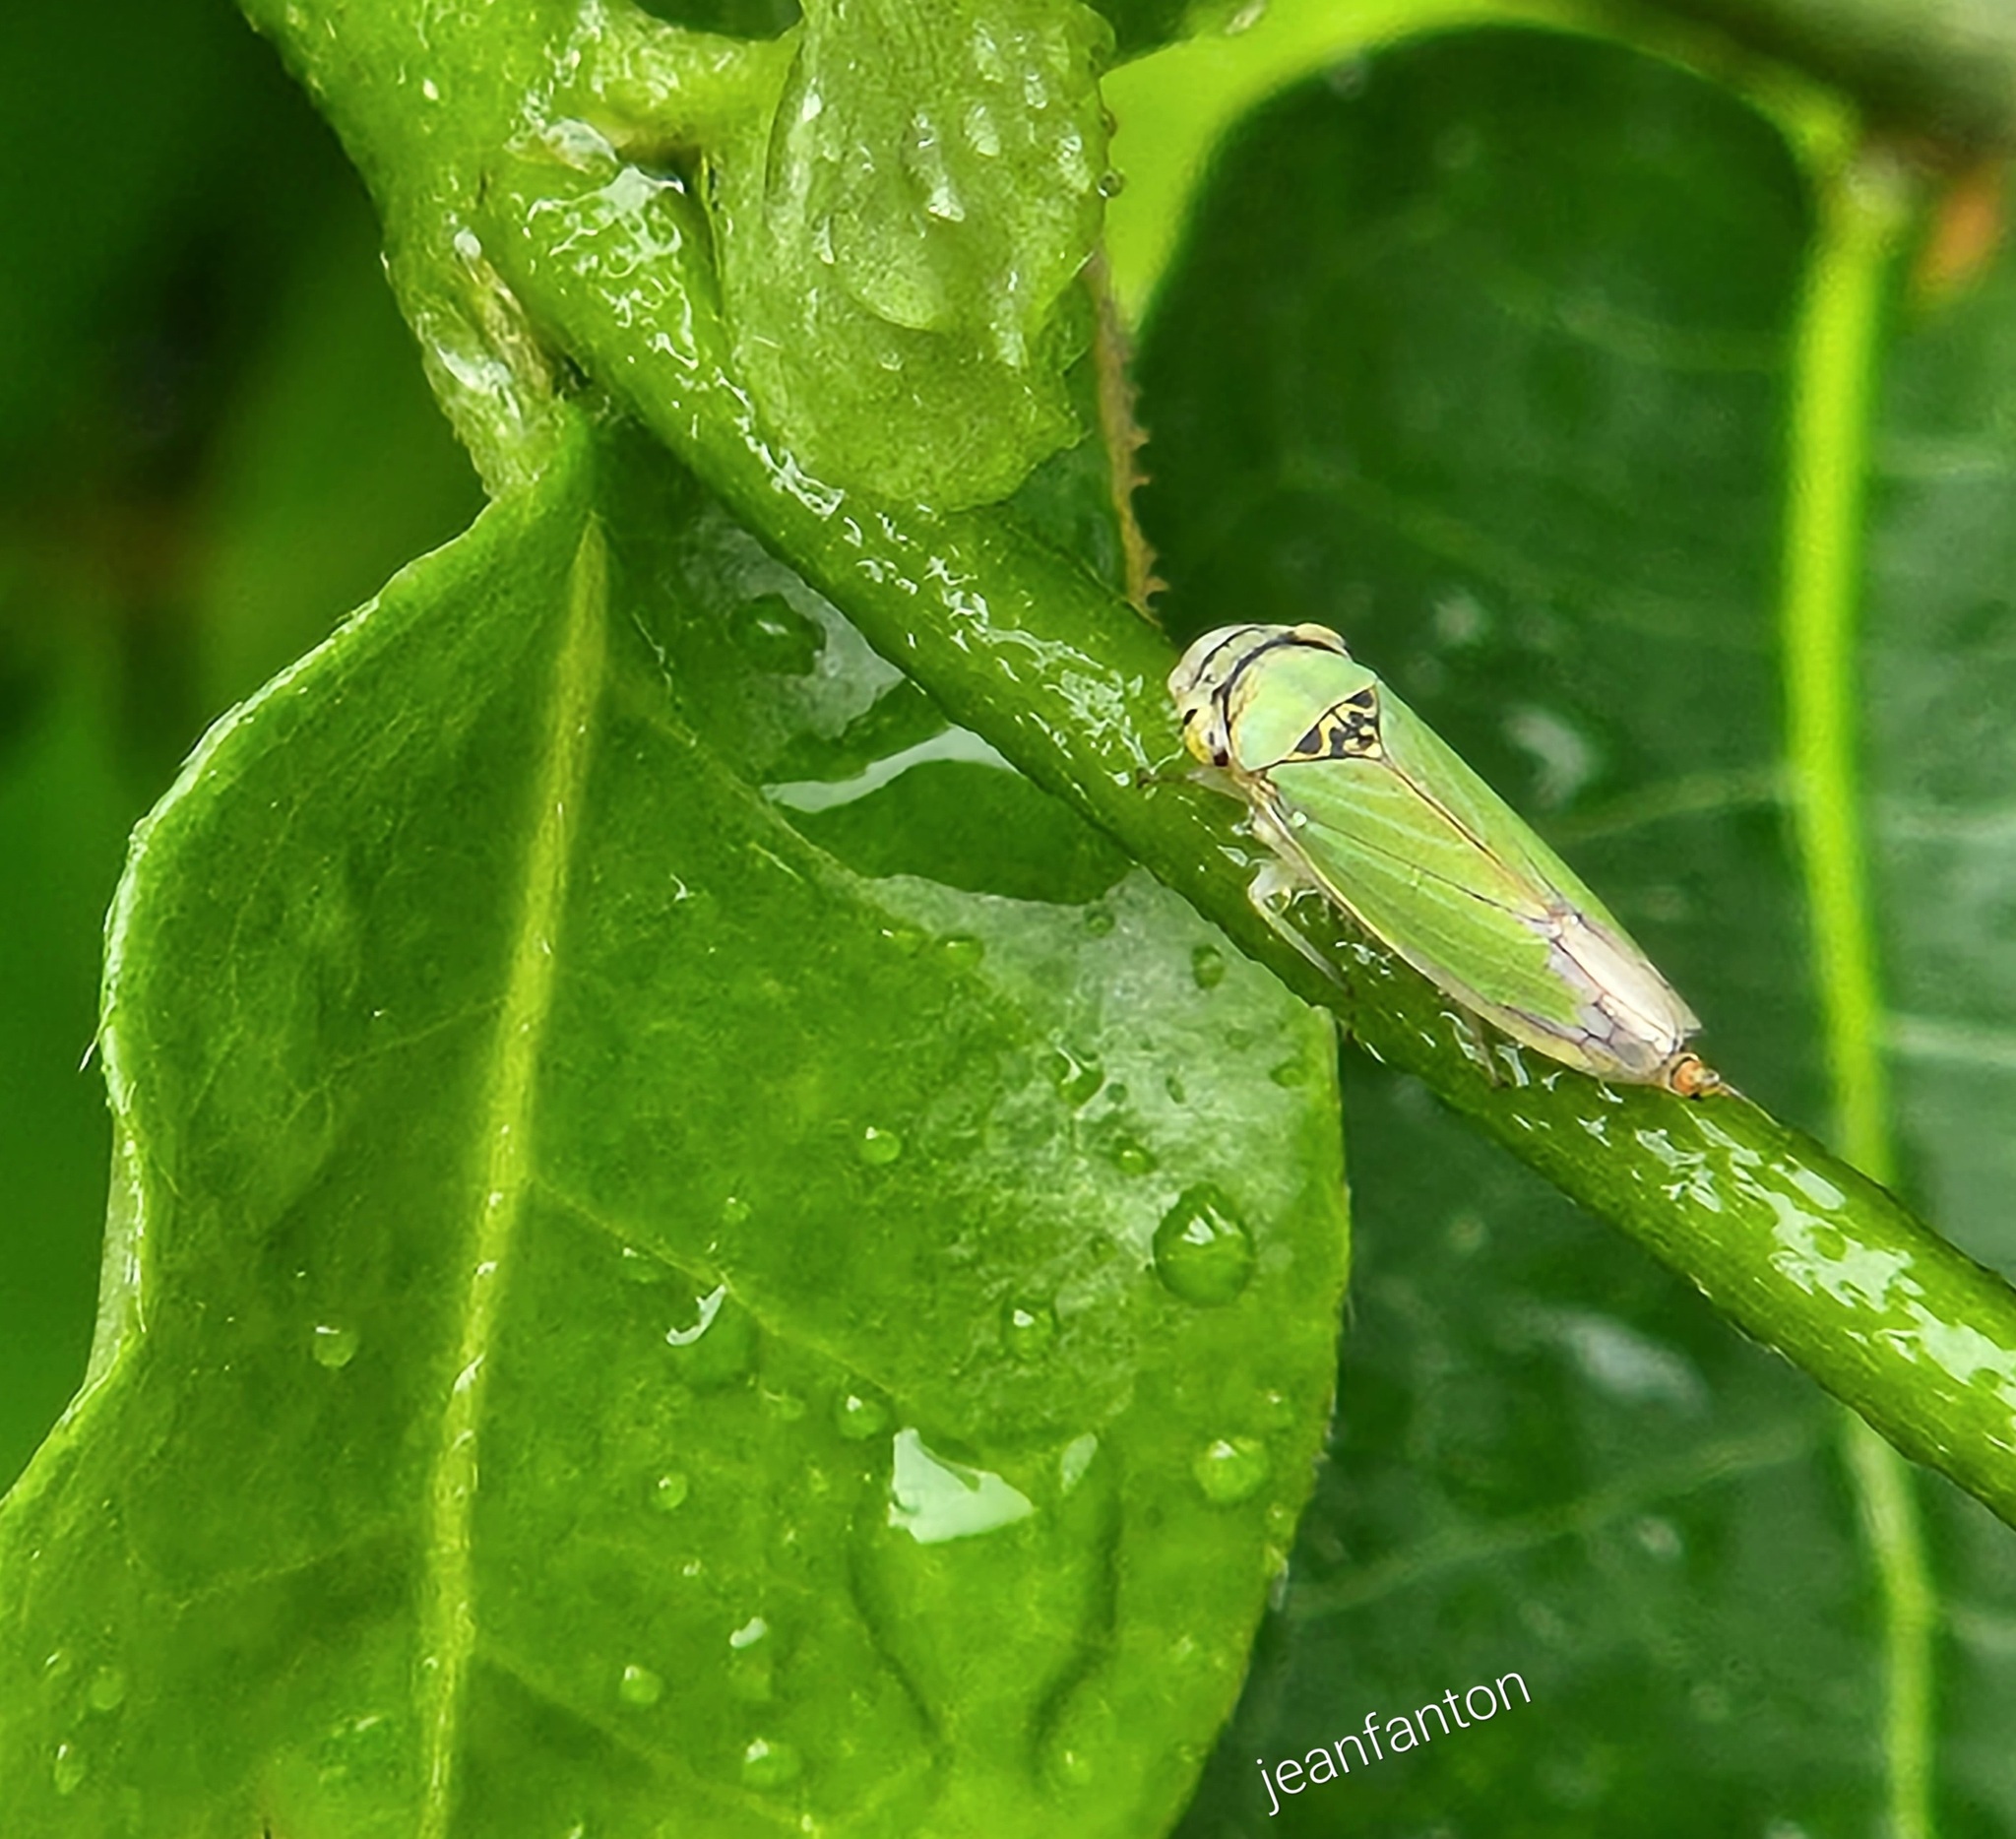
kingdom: Animalia
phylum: Arthropoda
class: Insecta
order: Hemiptera
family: Cicadellidae
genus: Bucephalogonia
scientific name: Bucephalogonia xanthophis
